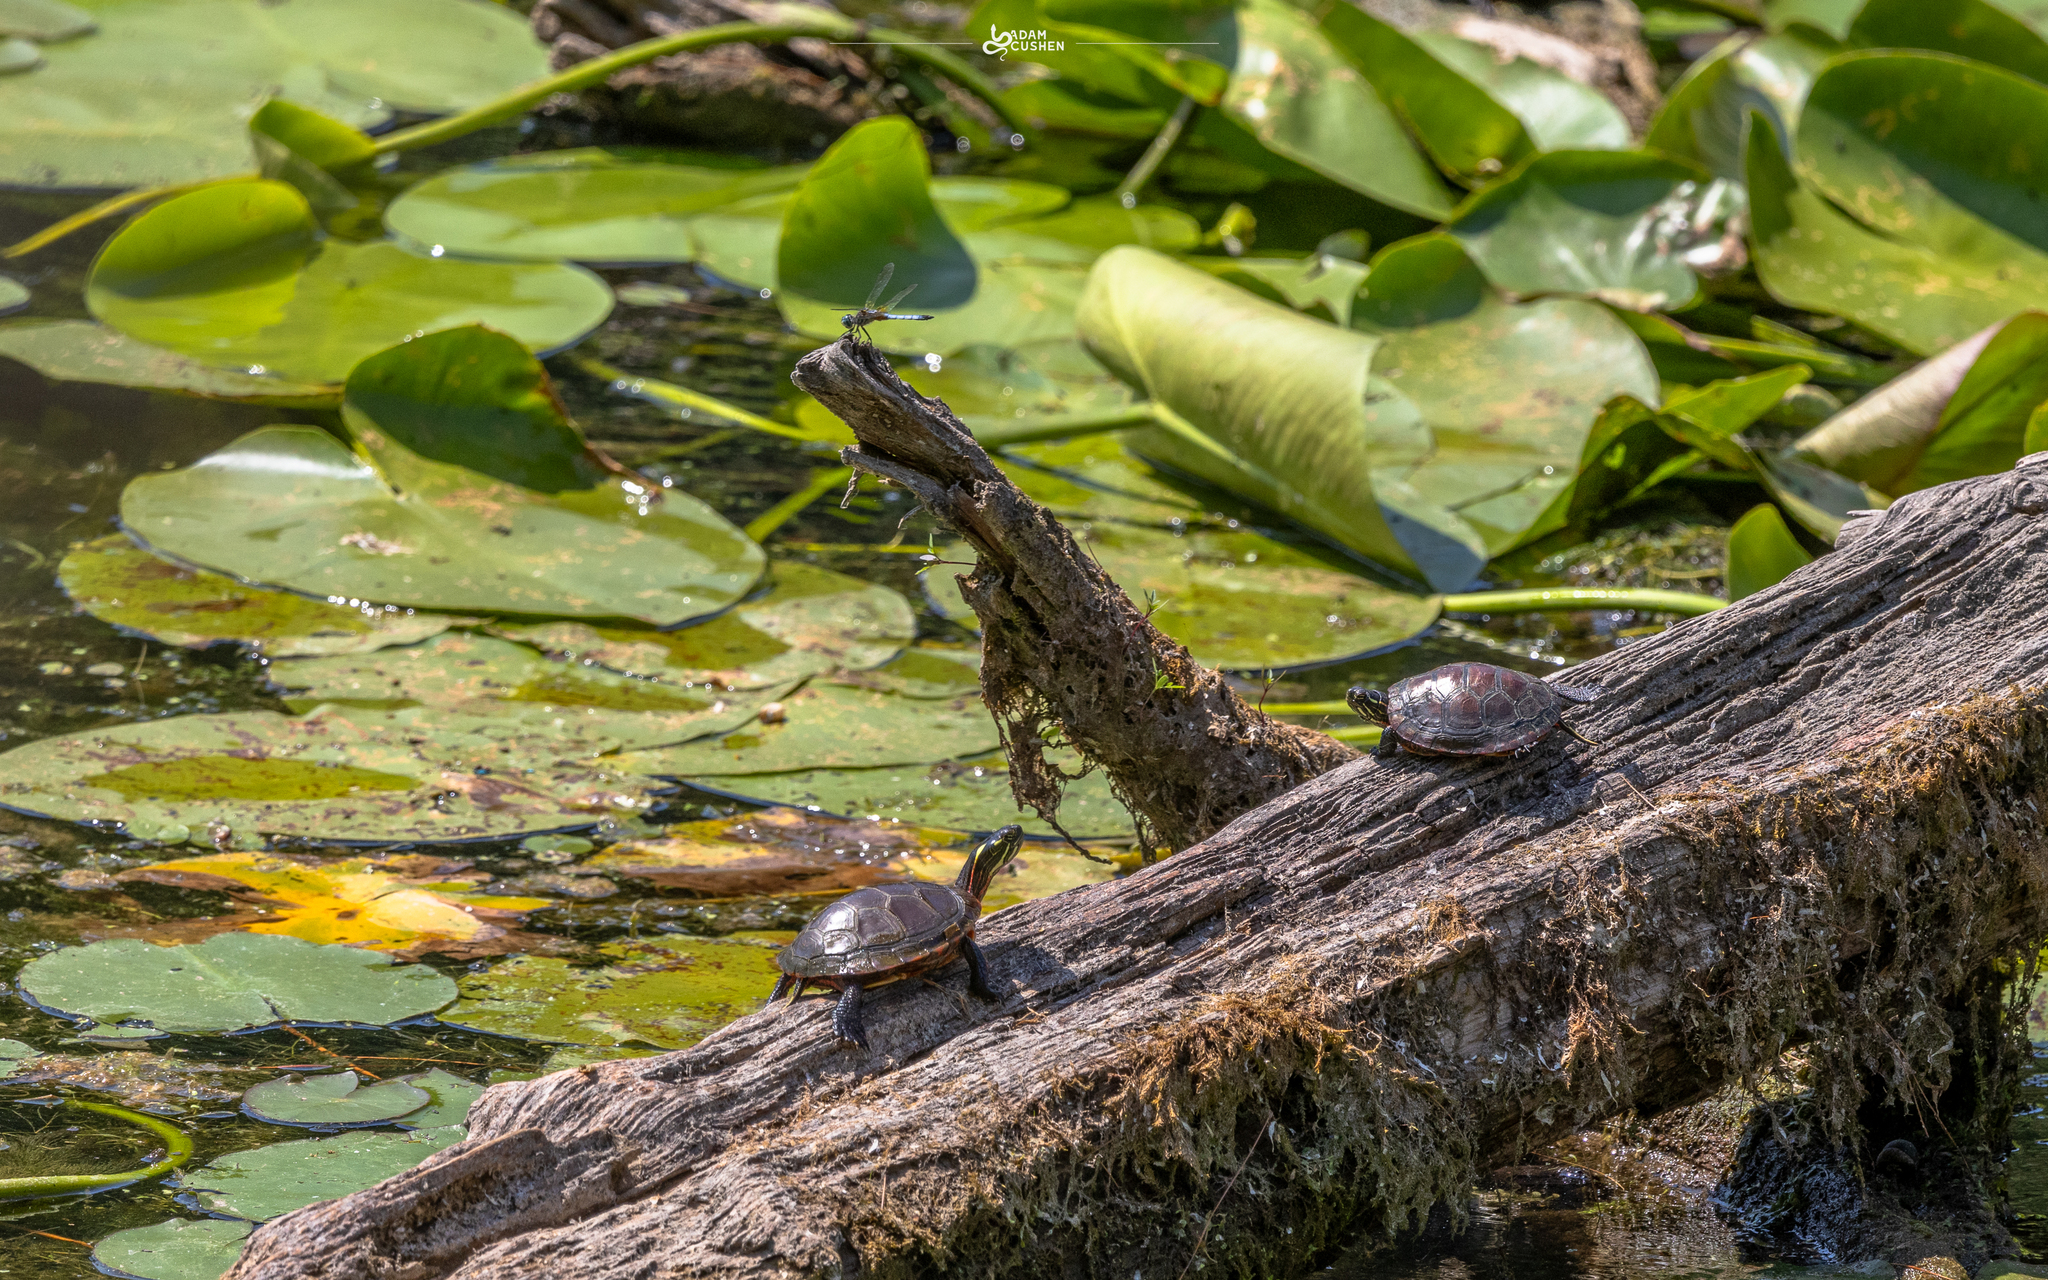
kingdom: Animalia
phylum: Chordata
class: Testudines
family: Emydidae
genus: Chrysemys
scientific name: Chrysemys picta
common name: Painted turtle
